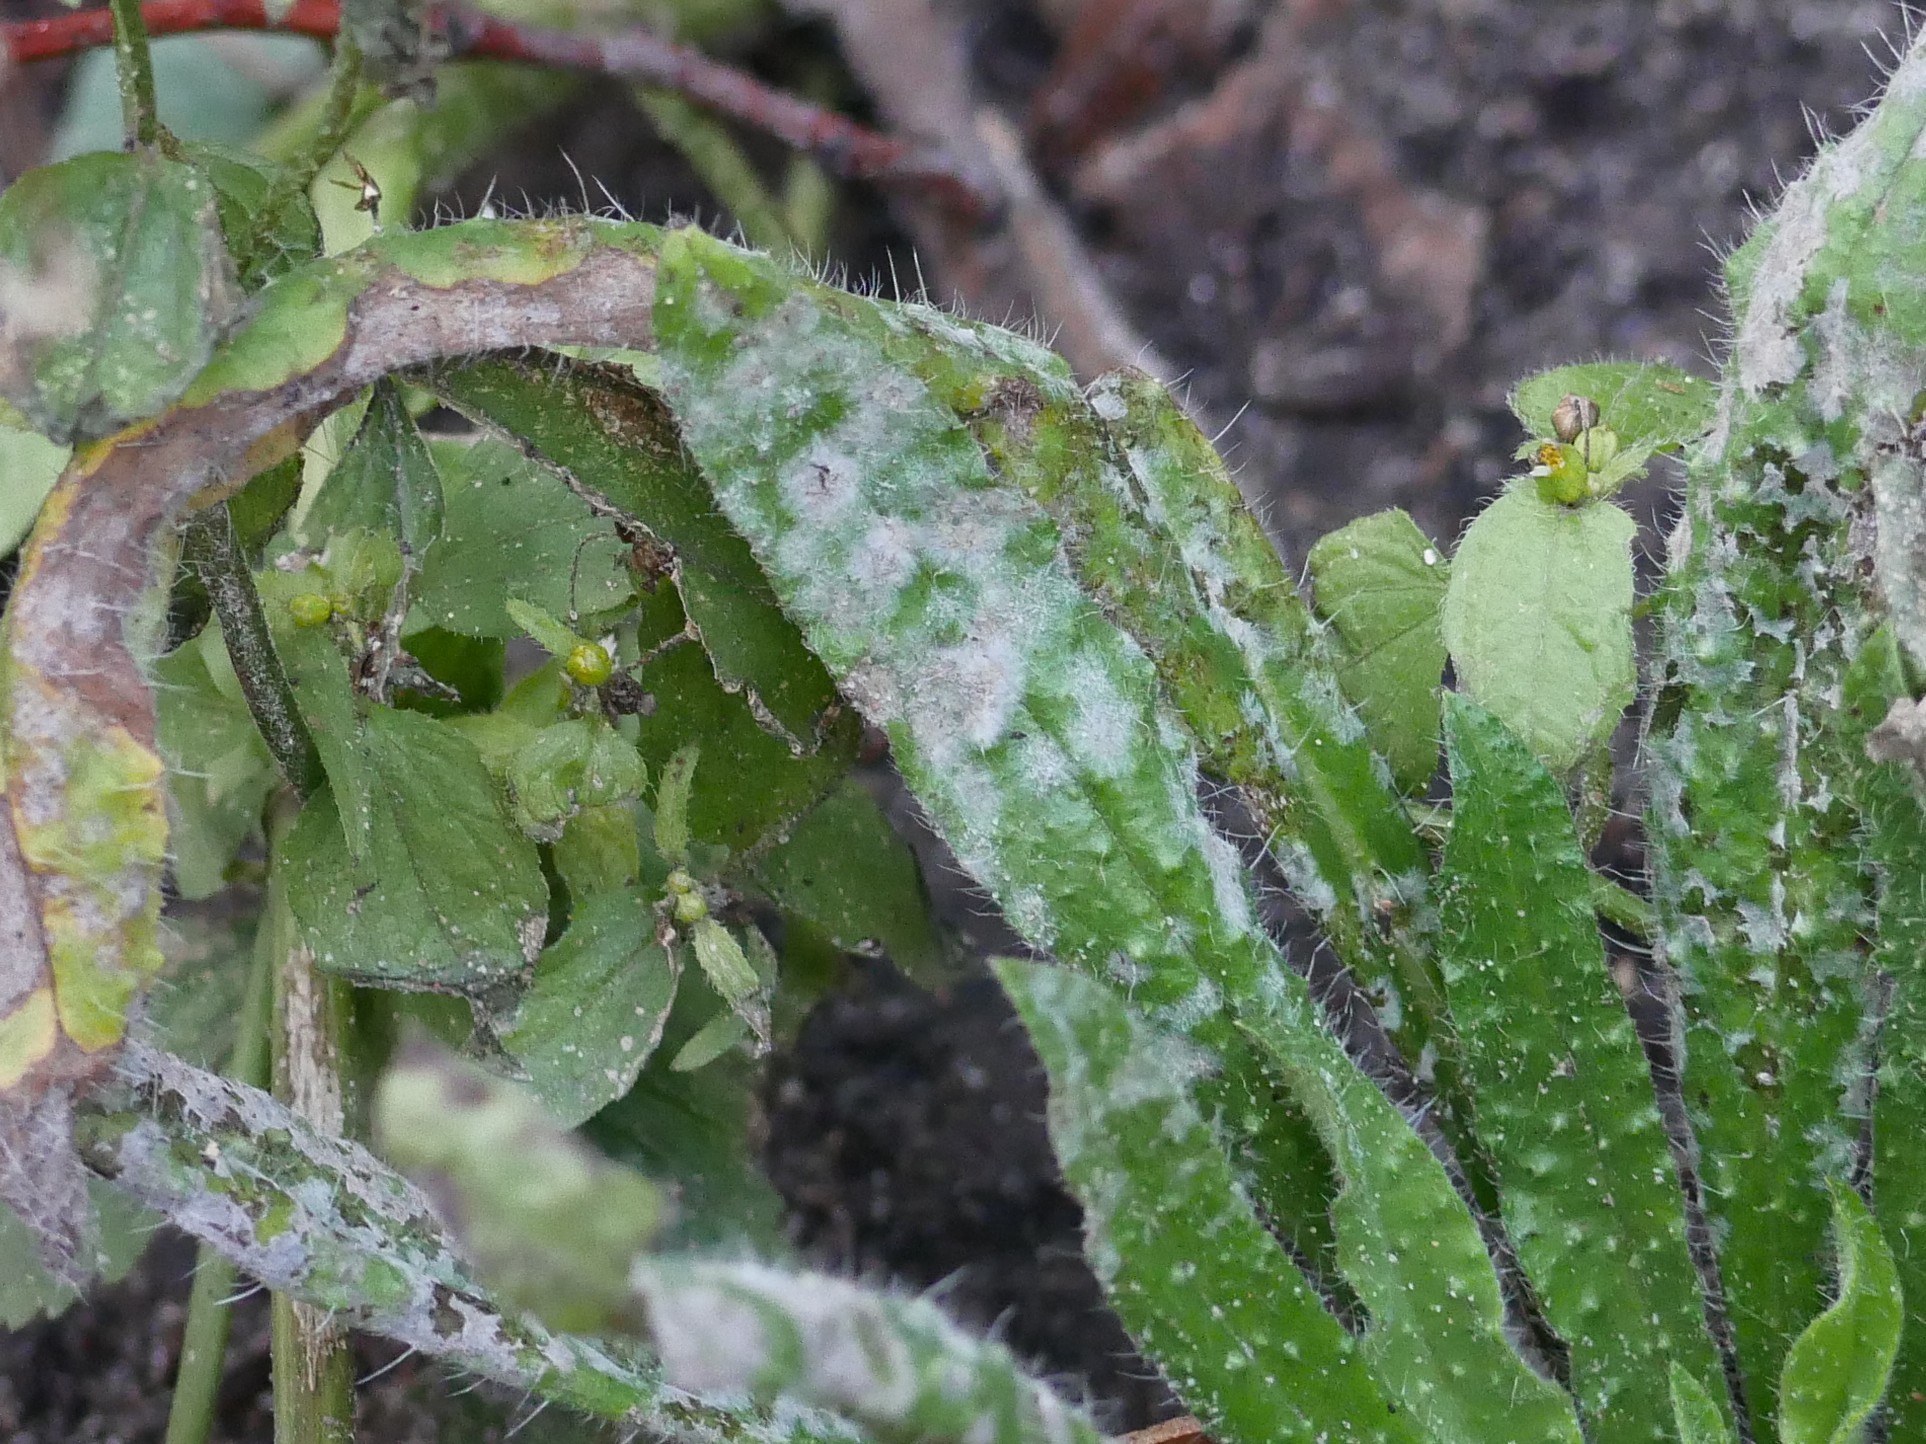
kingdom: Fungi
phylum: Ascomycota
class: Leotiomycetes
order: Helotiales
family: Erysiphaceae
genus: Golovinomyces
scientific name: Golovinomyces asperifolii
